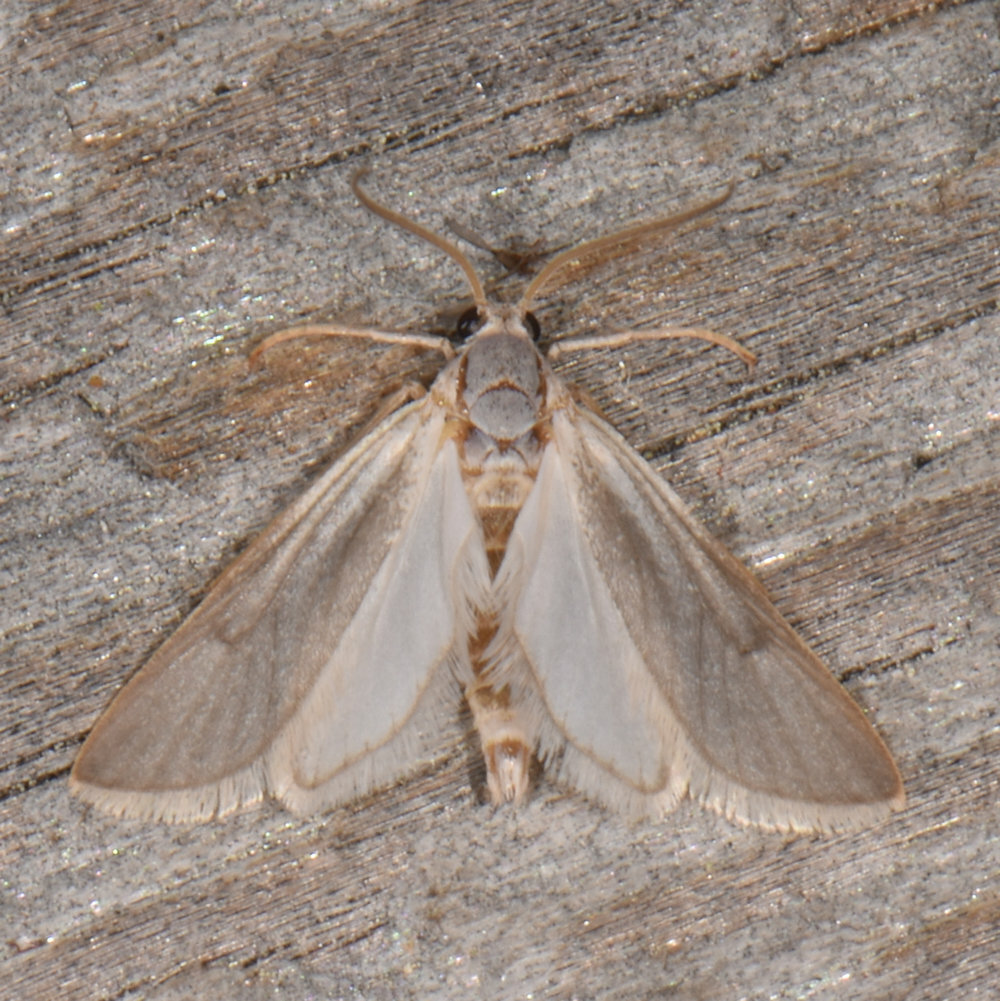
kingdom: Animalia
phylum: Arthropoda
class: Insecta
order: Lepidoptera
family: Crambidae
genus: Acentria
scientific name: Acentria ephemerella
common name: European water moth
